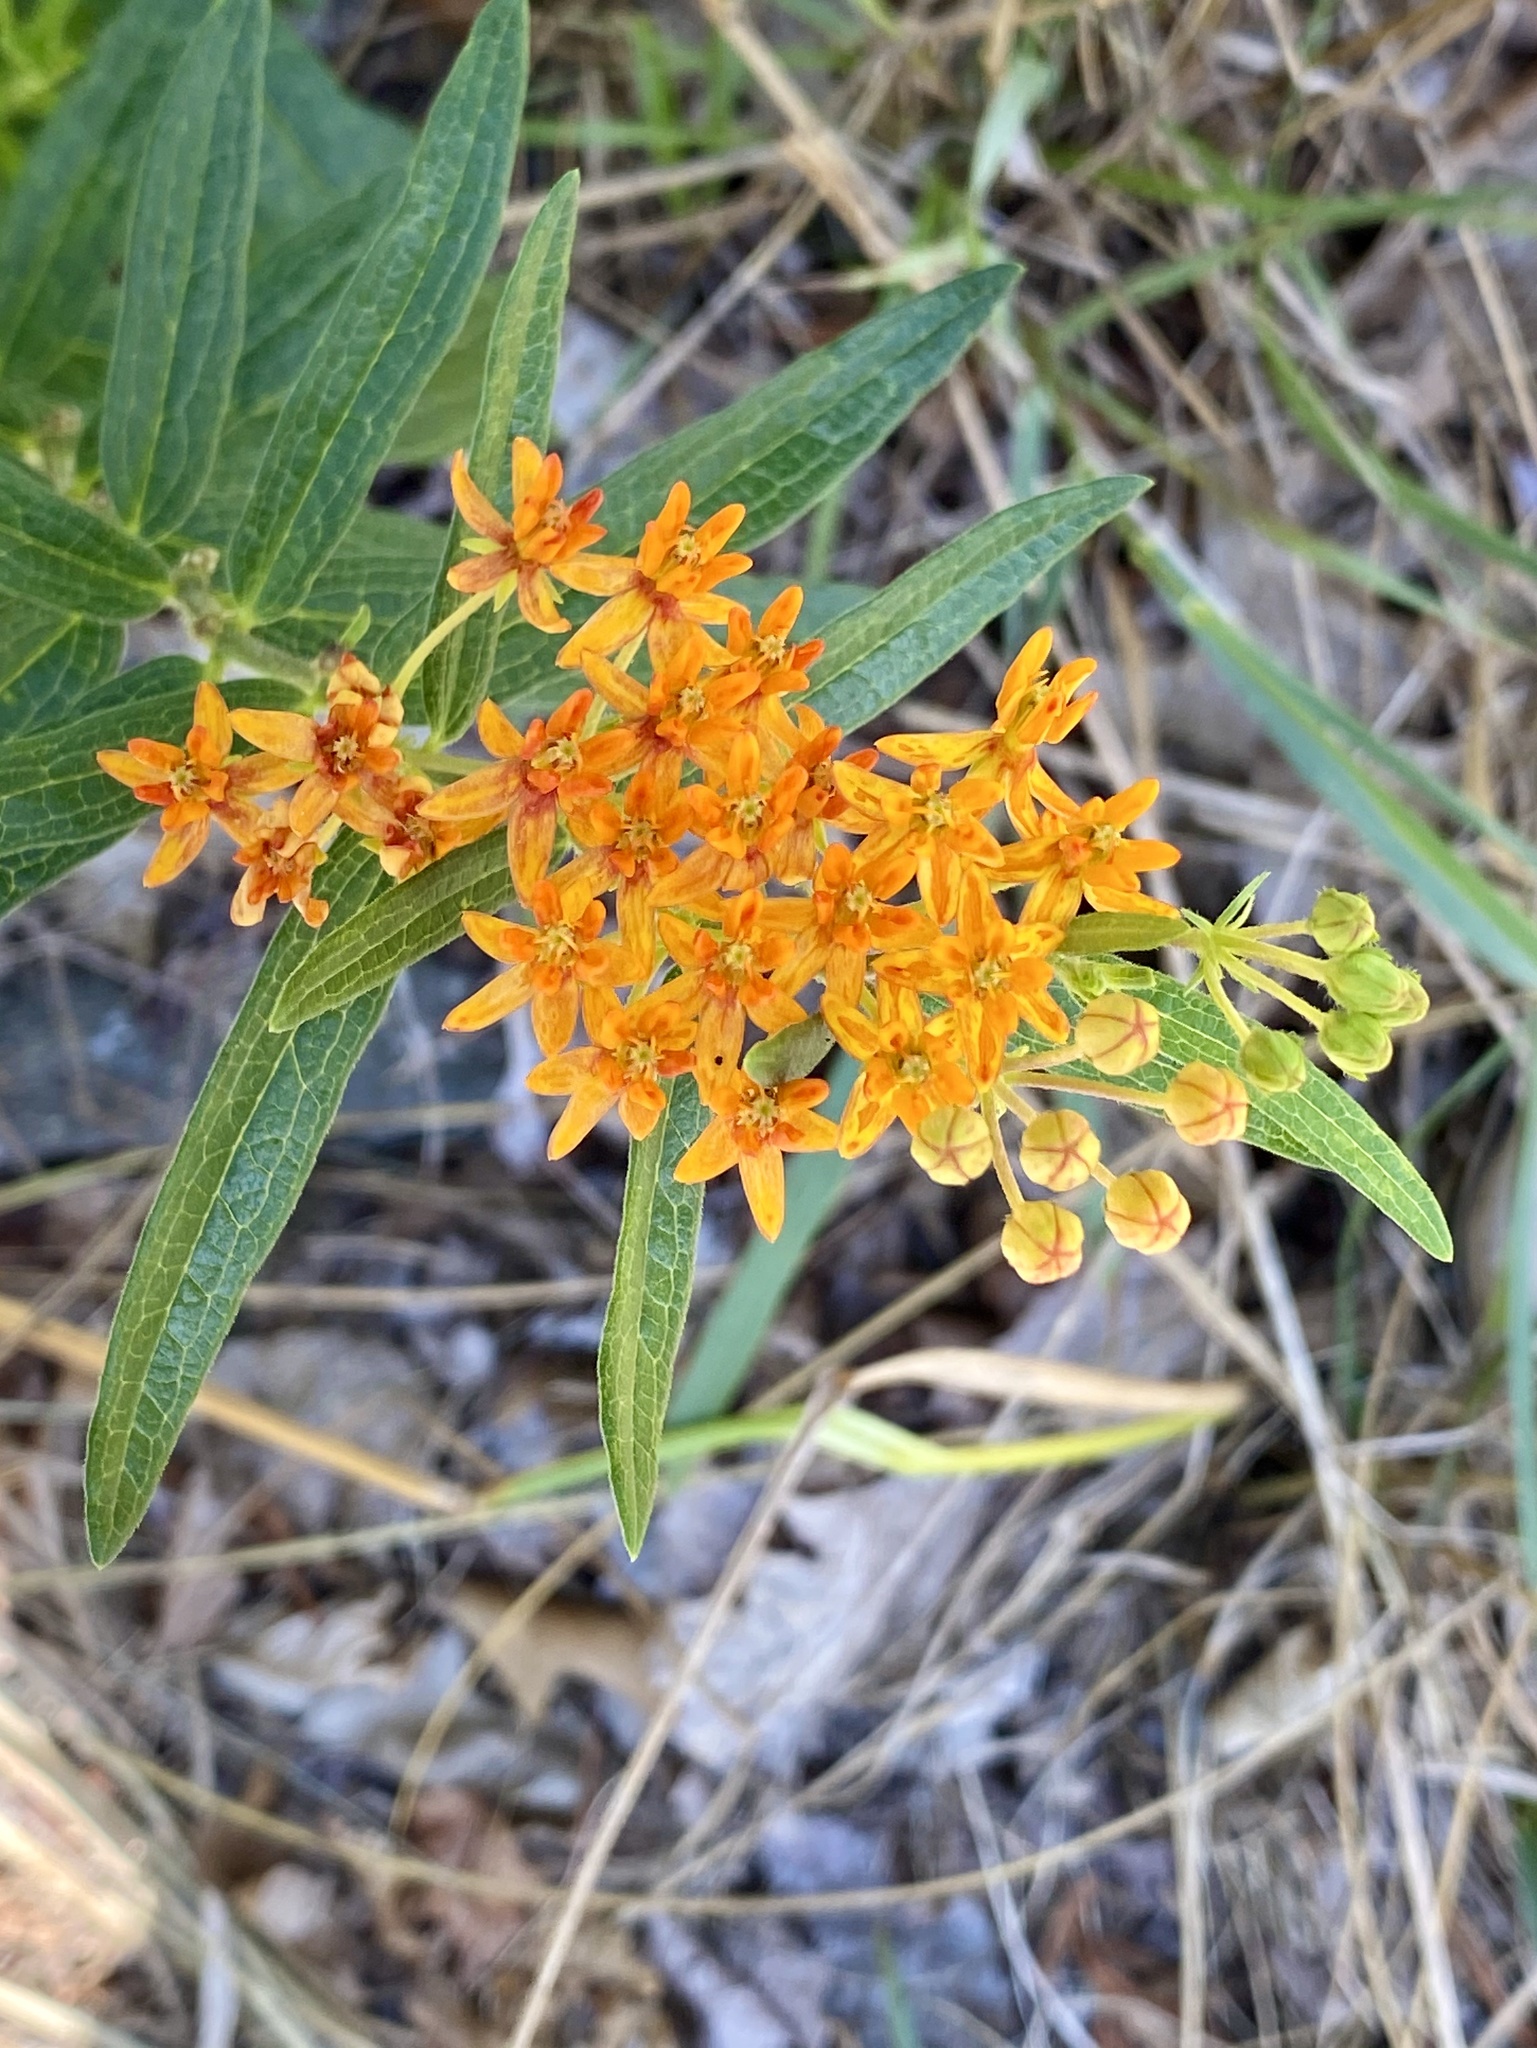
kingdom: Plantae
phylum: Tracheophyta
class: Magnoliopsida
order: Gentianales
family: Apocynaceae
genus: Asclepias
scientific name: Asclepias tuberosa
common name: Butterfly milkweed
